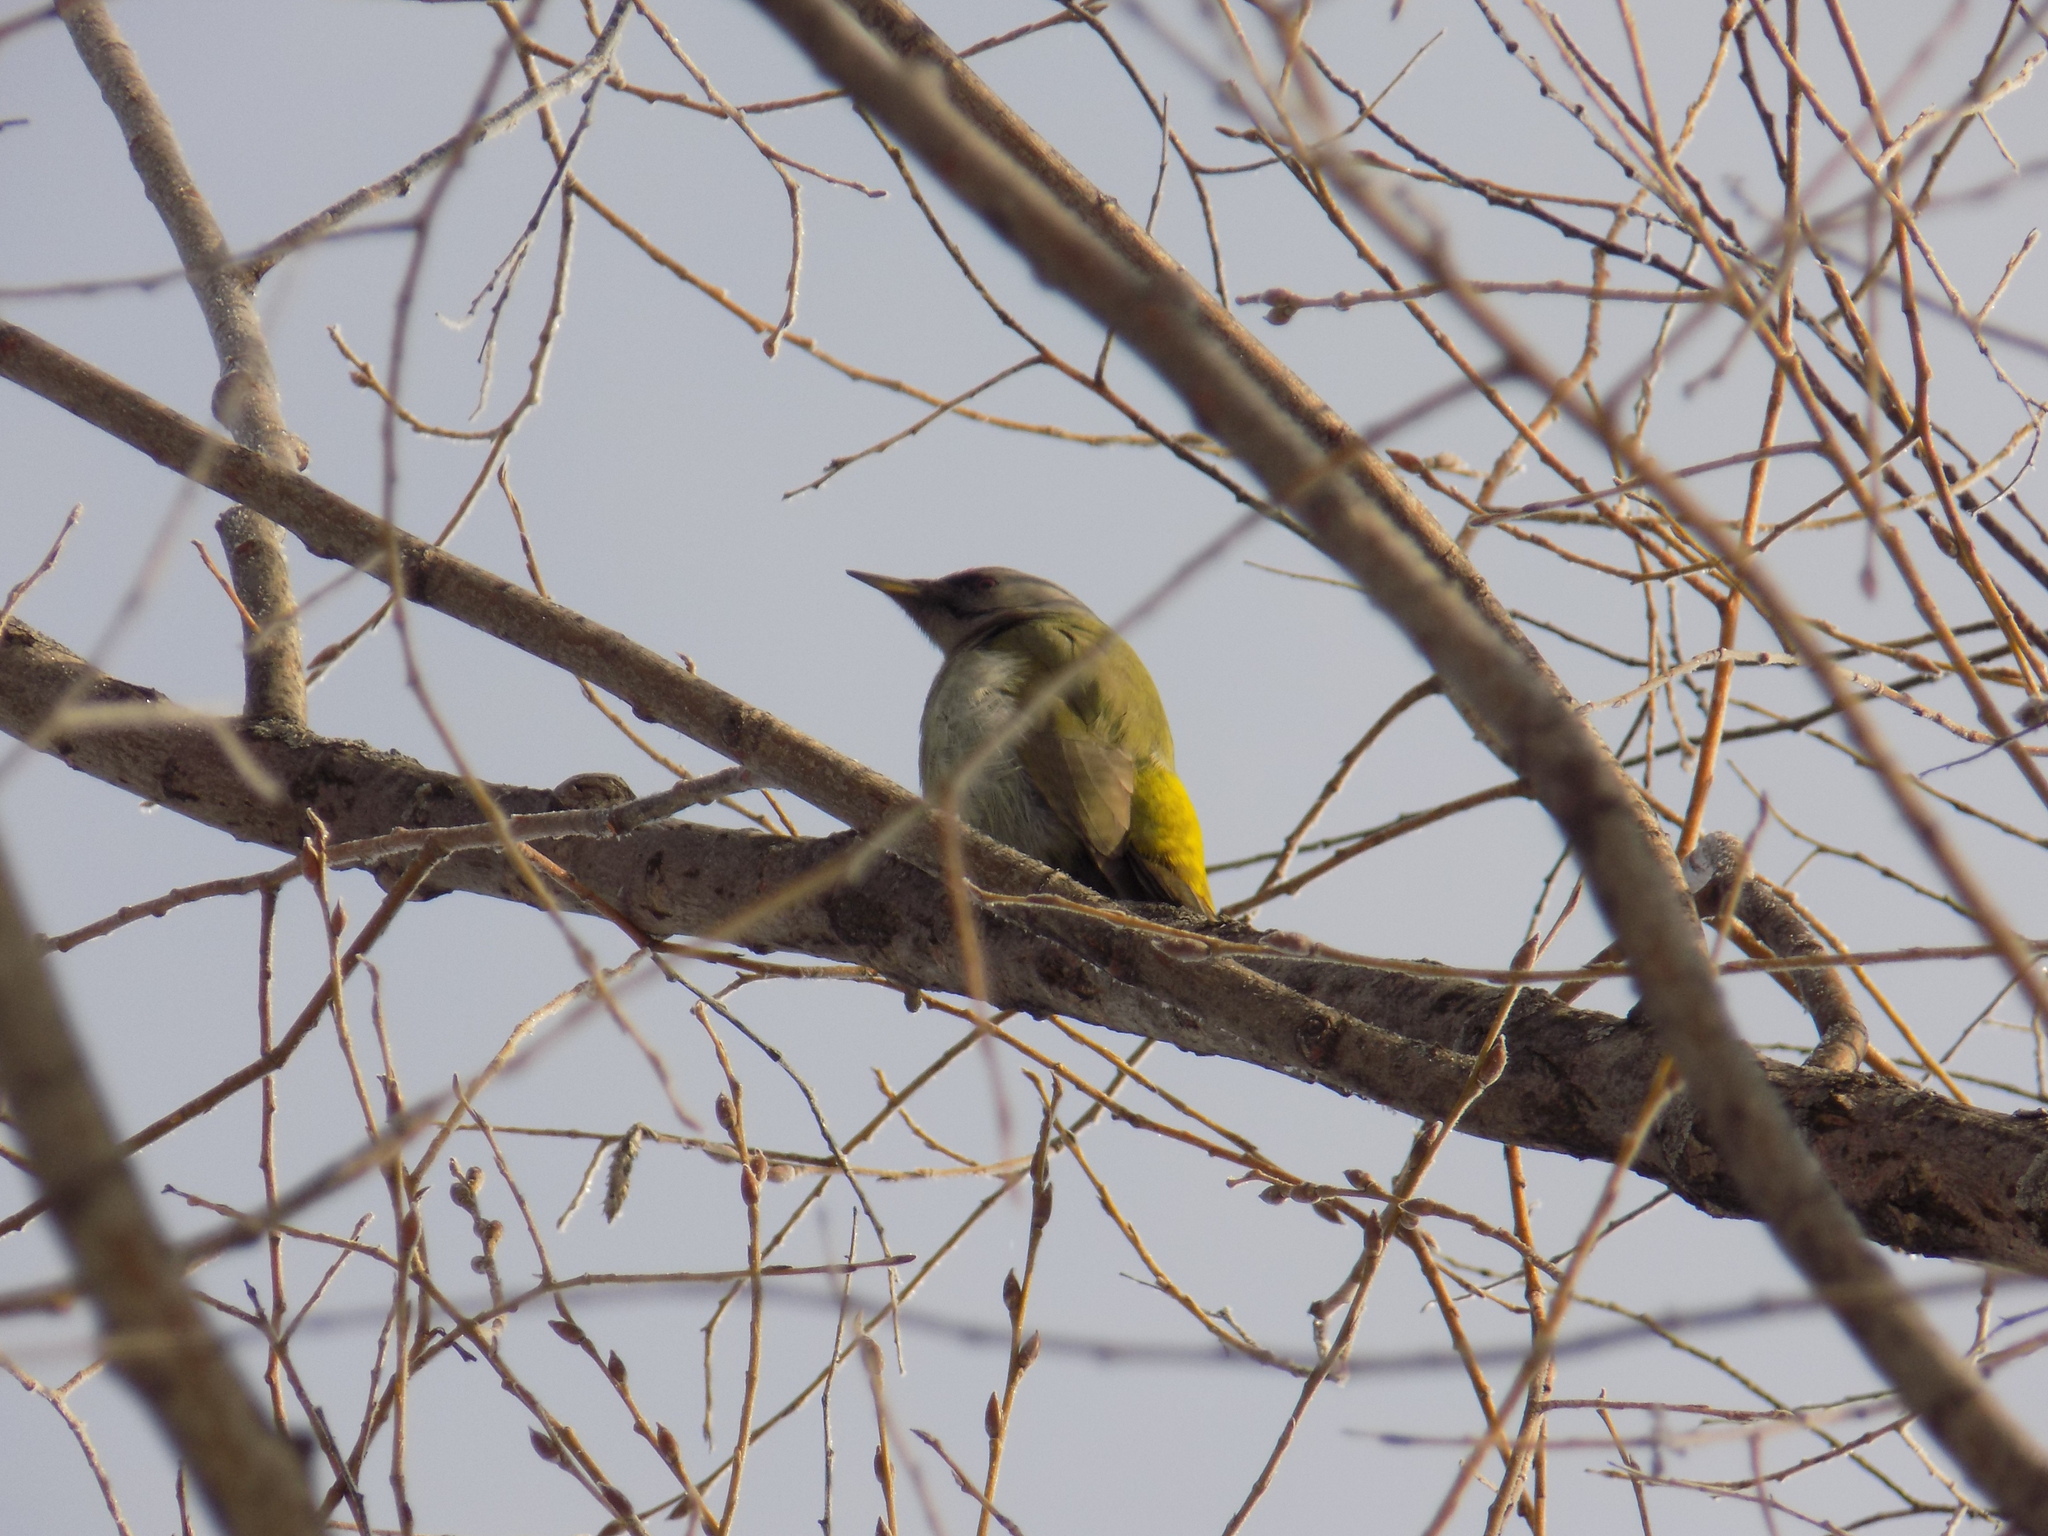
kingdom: Animalia
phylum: Chordata
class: Aves
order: Piciformes
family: Picidae
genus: Picus
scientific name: Picus canus
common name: Grey-headed woodpecker
